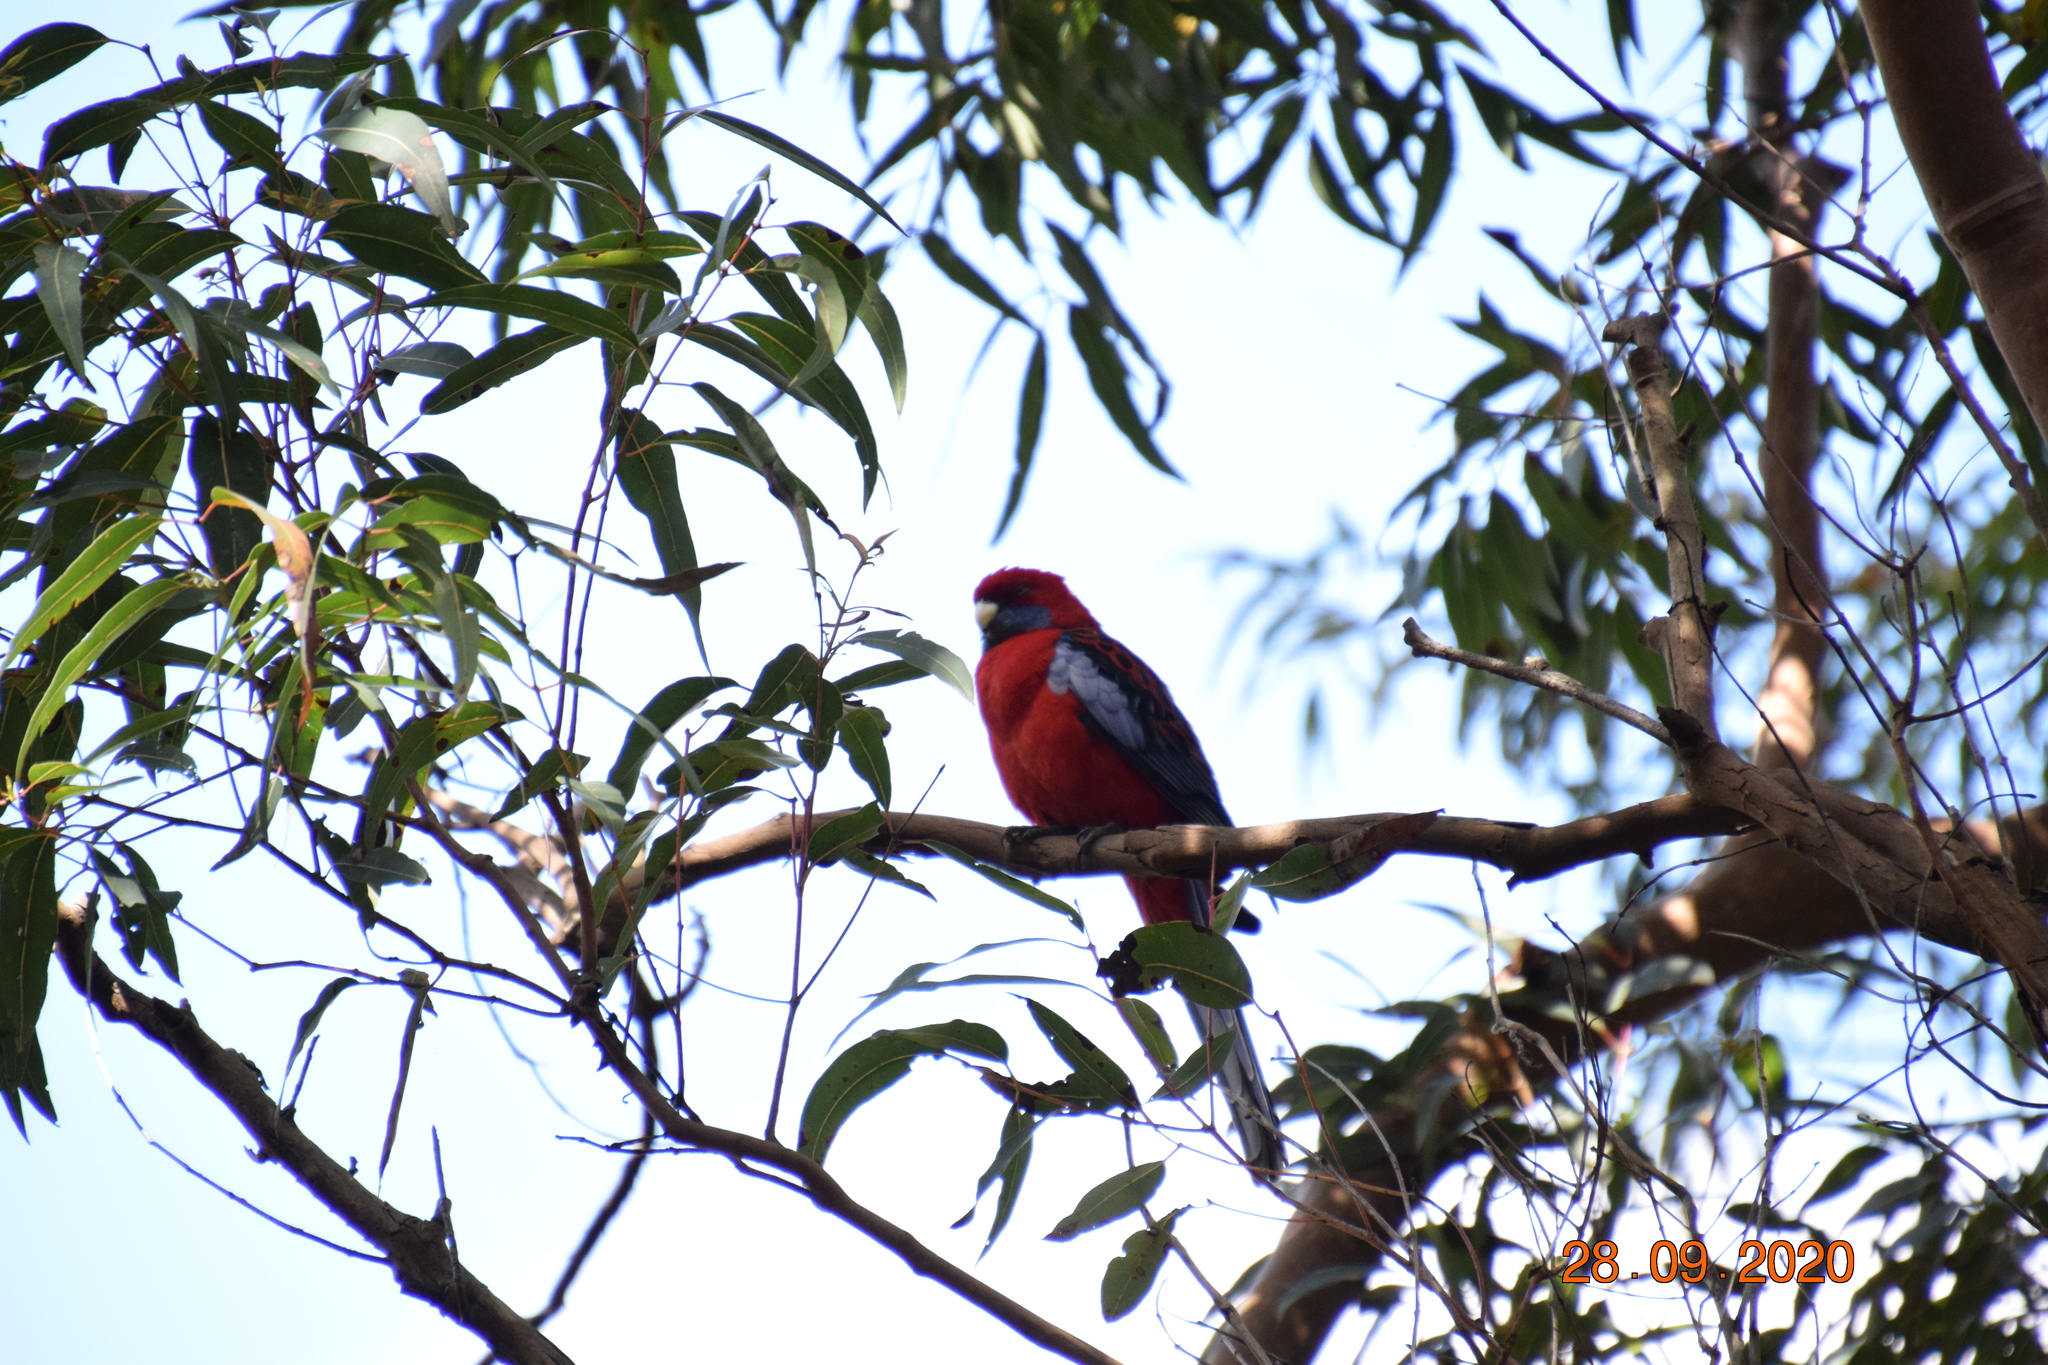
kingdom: Animalia
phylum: Chordata
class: Aves
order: Psittaciformes
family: Psittacidae
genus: Platycercus
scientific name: Platycercus elegans
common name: Crimson rosella
